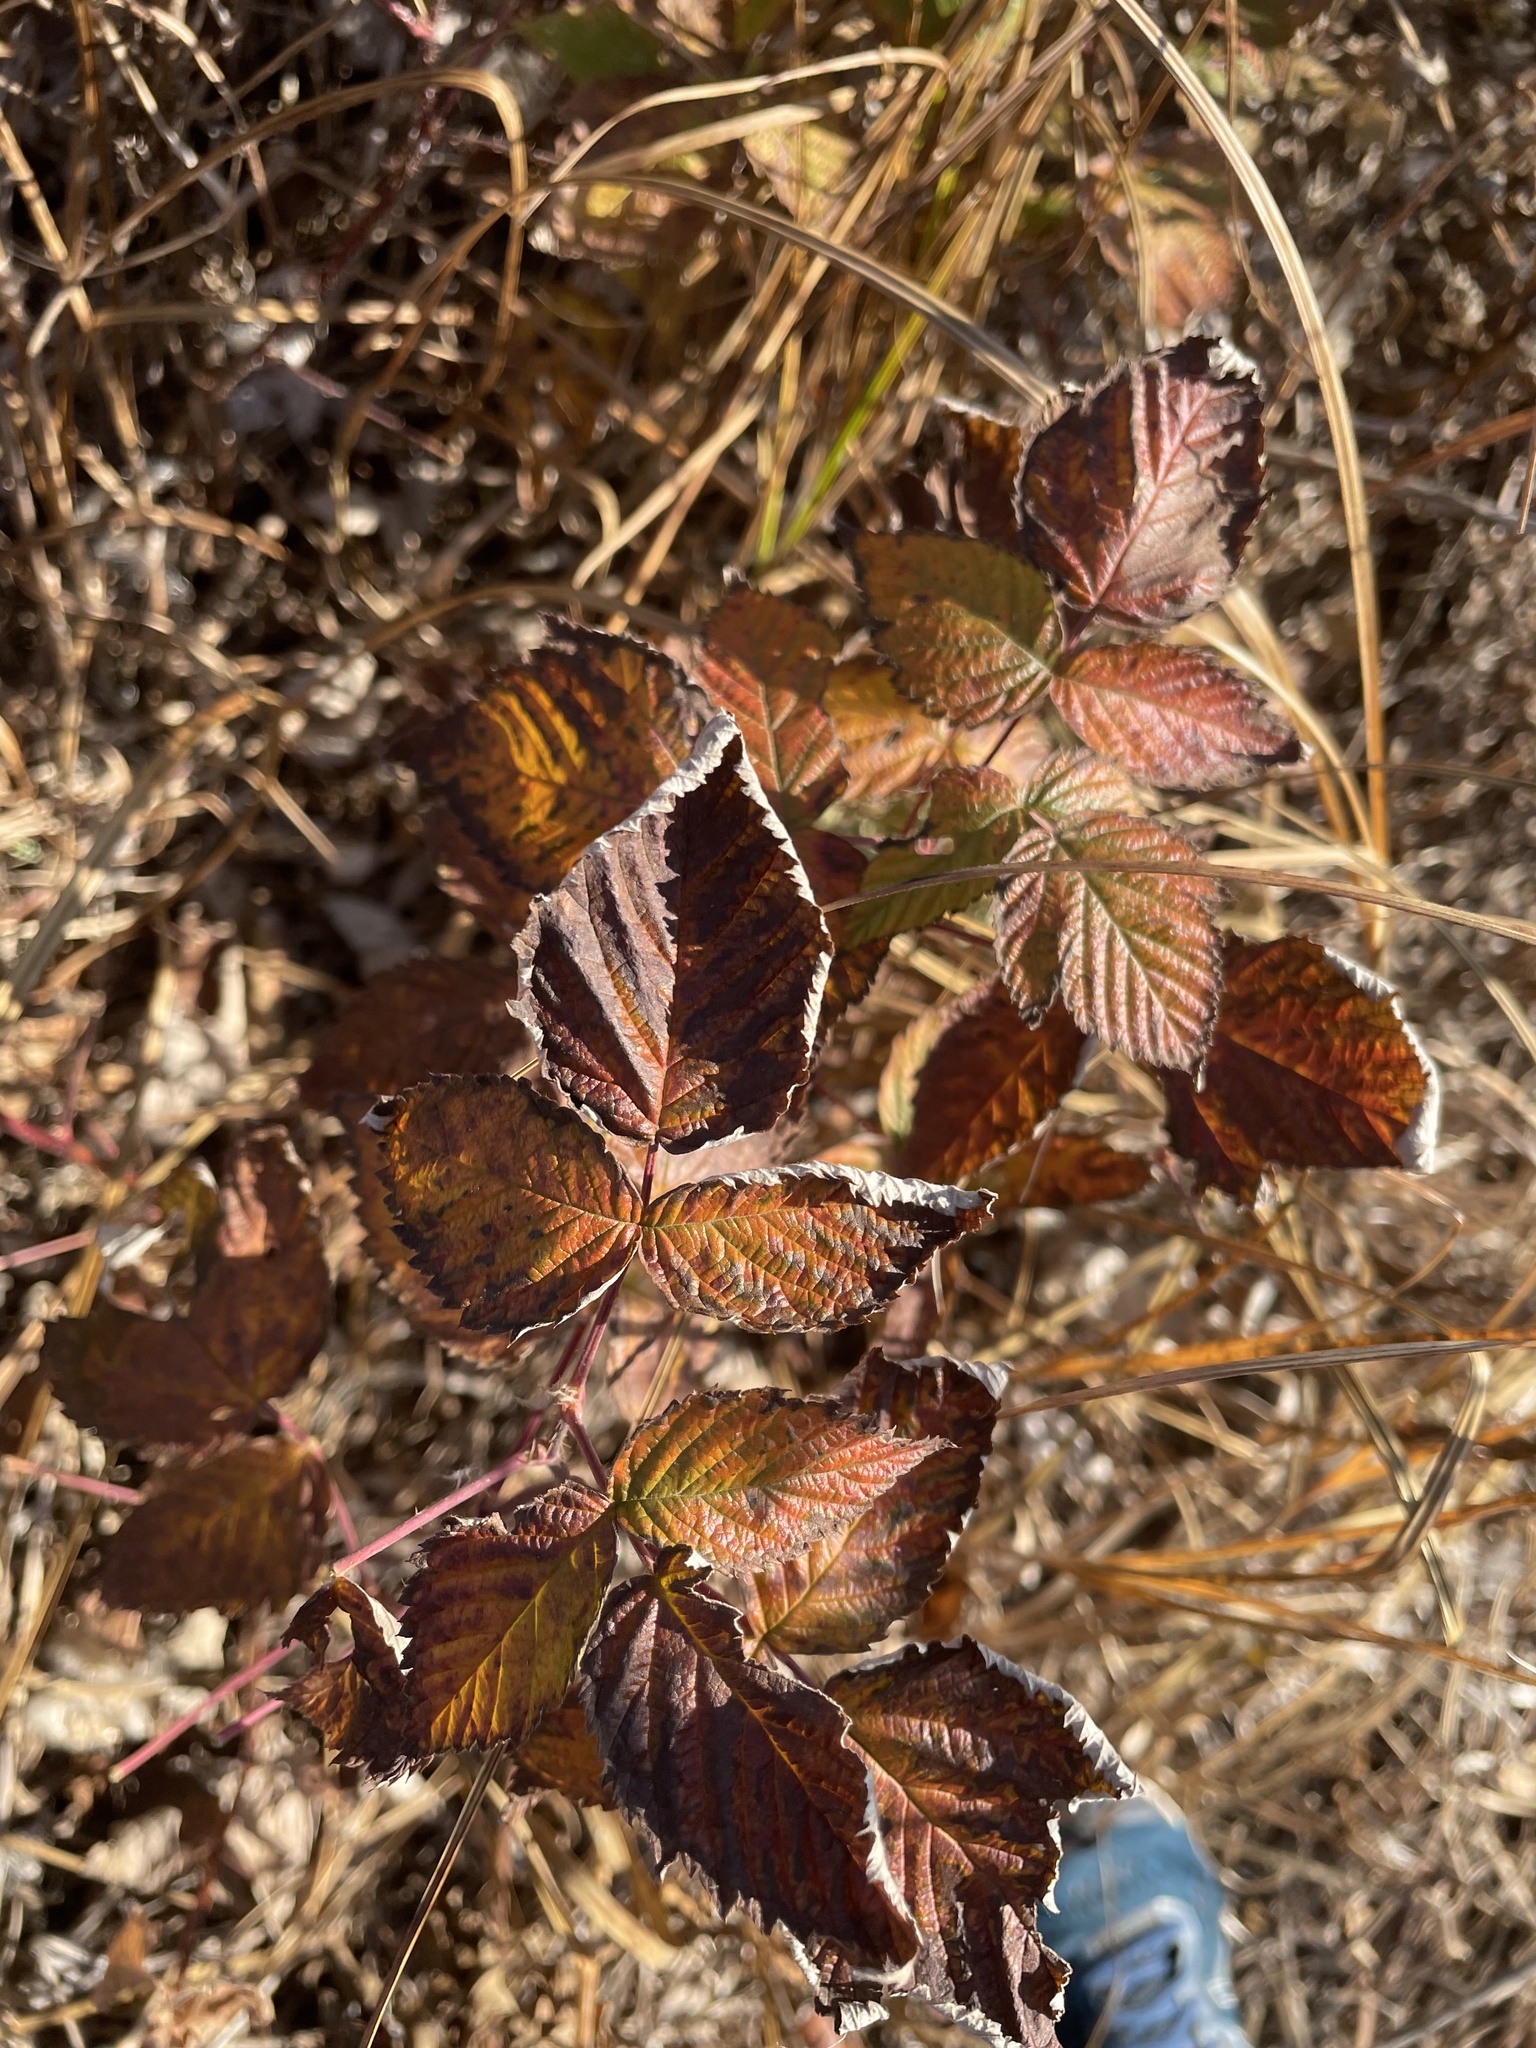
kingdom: Plantae
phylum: Tracheophyta
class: Magnoliopsida
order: Rosales
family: Rosaceae
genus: Rubus
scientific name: Rubus idaeus
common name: Raspberry
